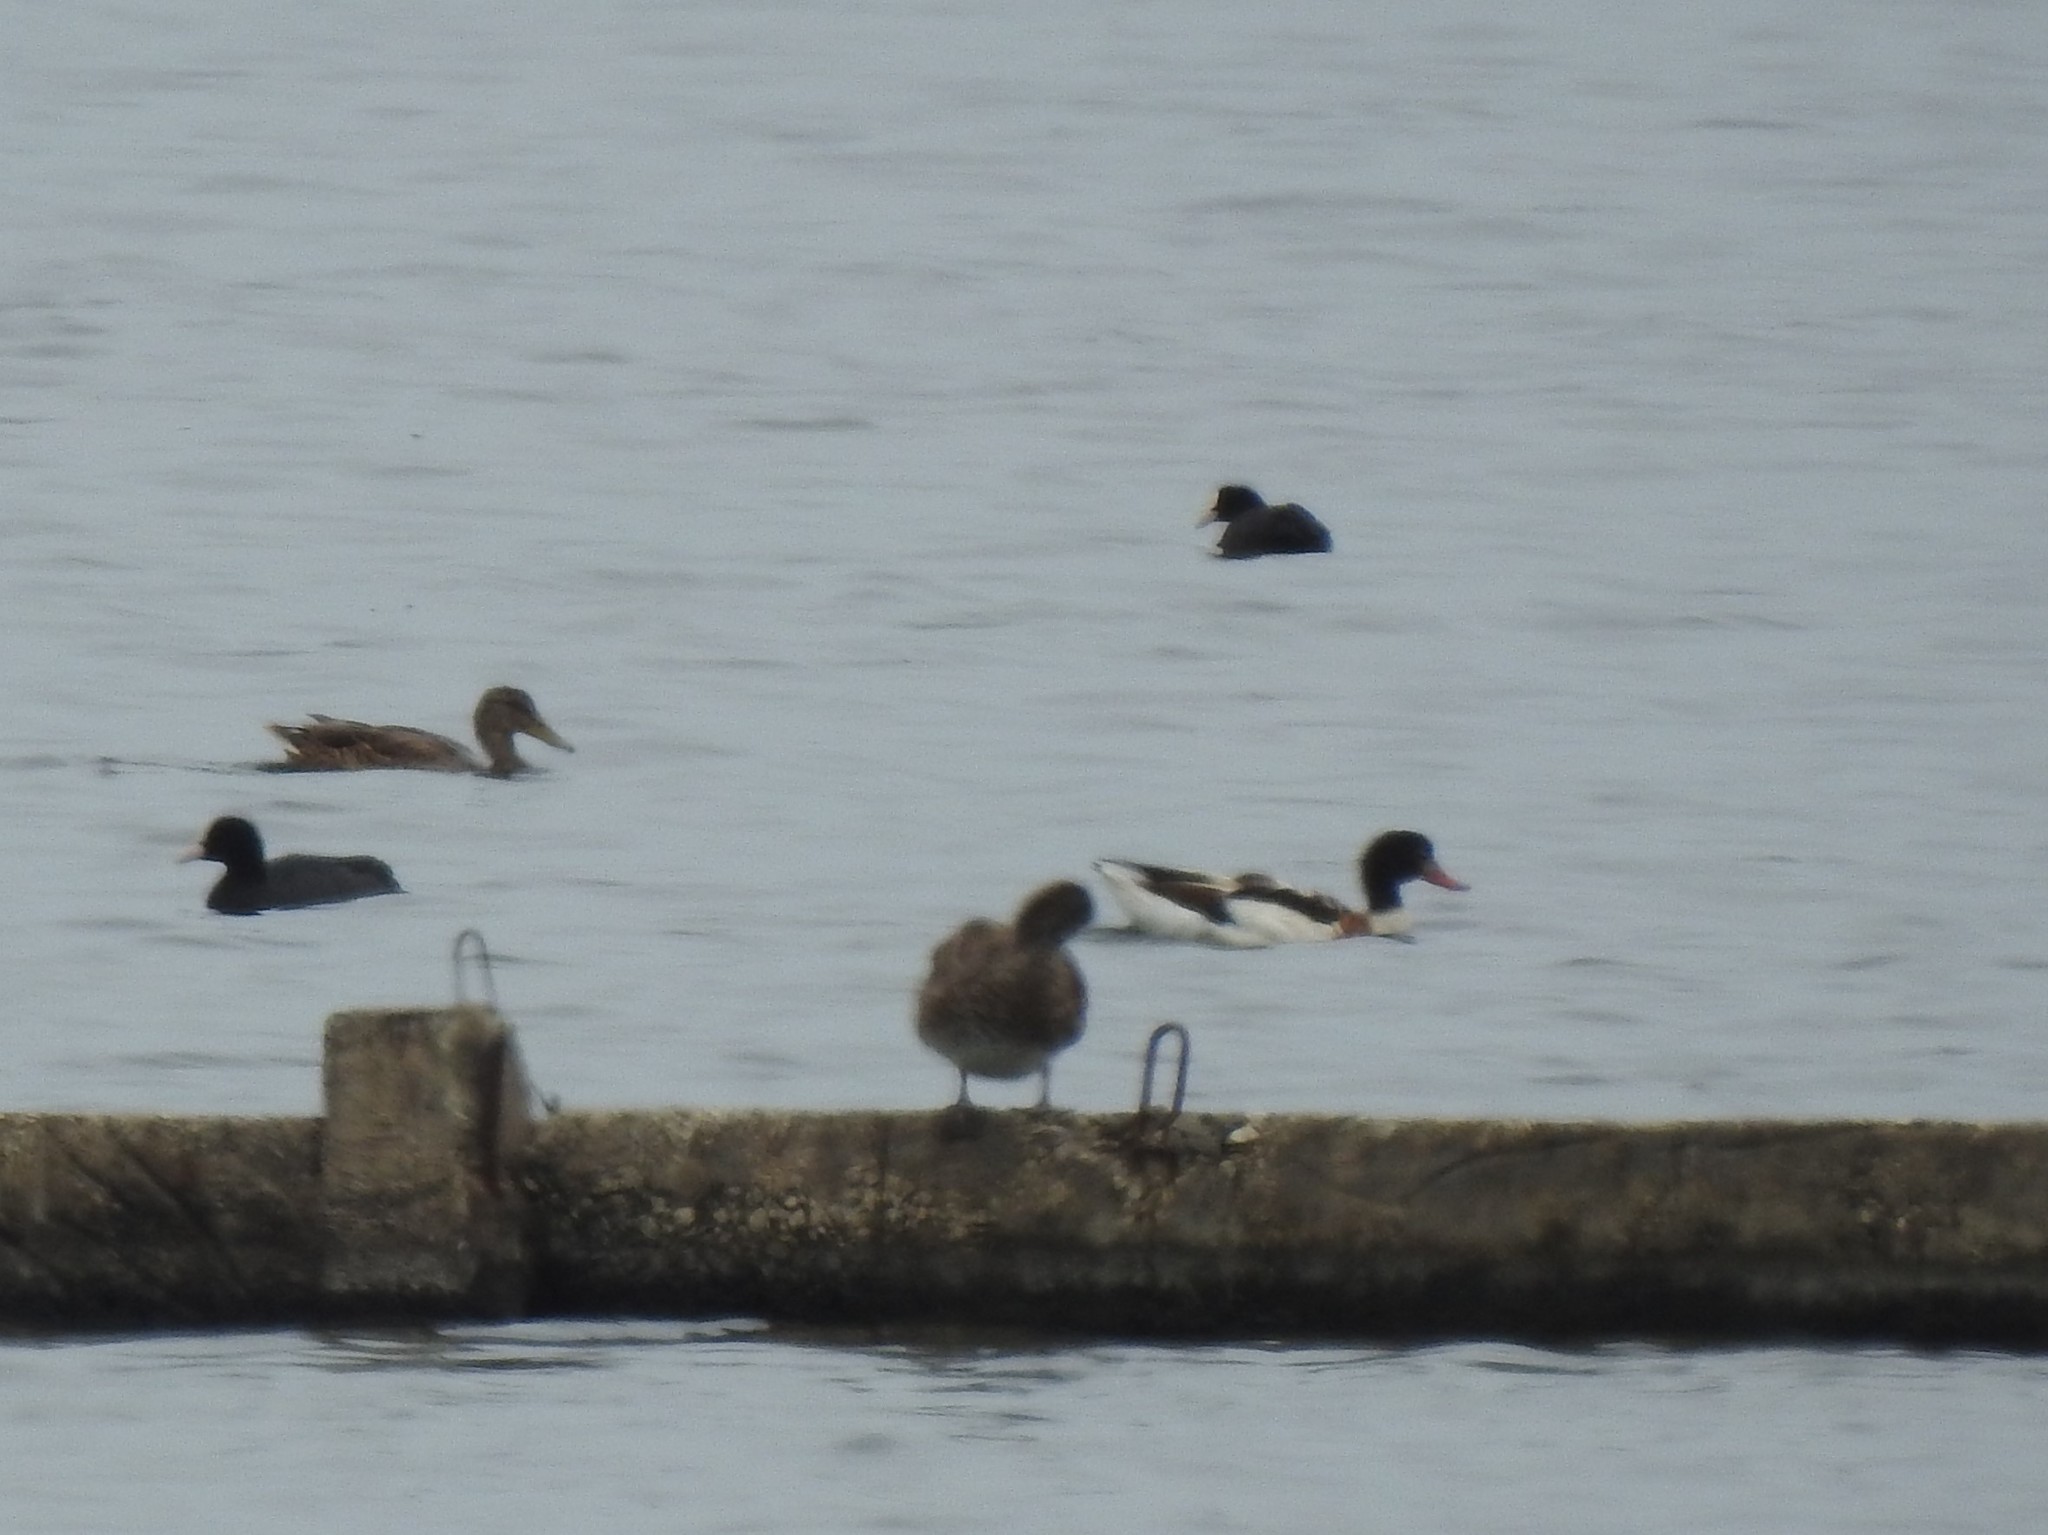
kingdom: Animalia
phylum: Chordata
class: Aves
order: Anseriformes
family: Anatidae
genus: Tadorna
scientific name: Tadorna tadorna
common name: Common shelduck
